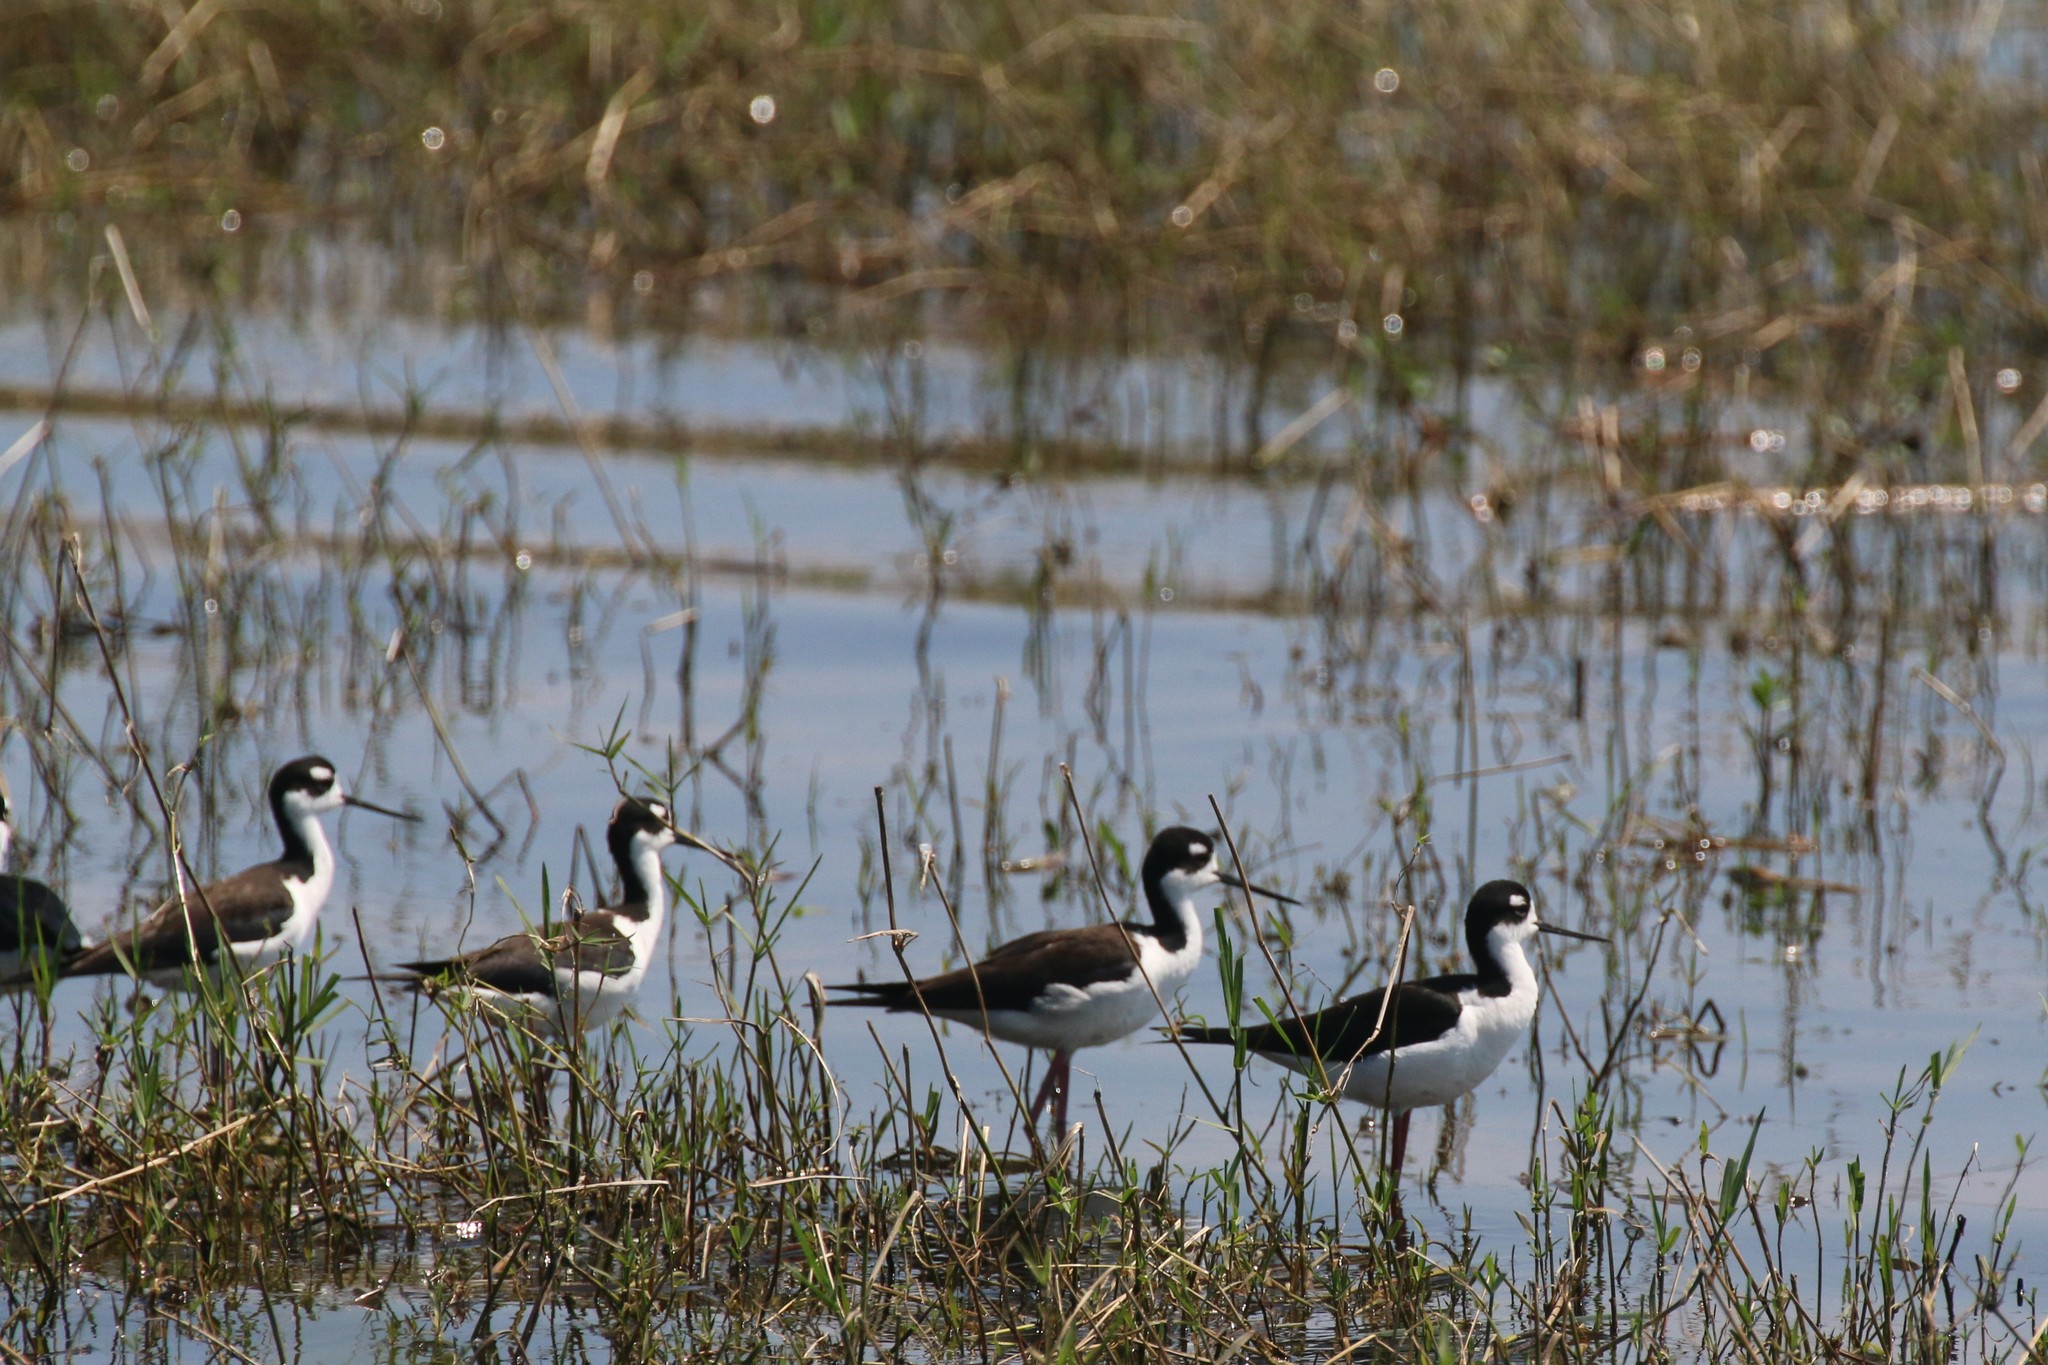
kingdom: Animalia
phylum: Chordata
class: Aves
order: Charadriiformes
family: Recurvirostridae
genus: Himantopus
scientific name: Himantopus mexicanus
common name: Black-necked stilt
